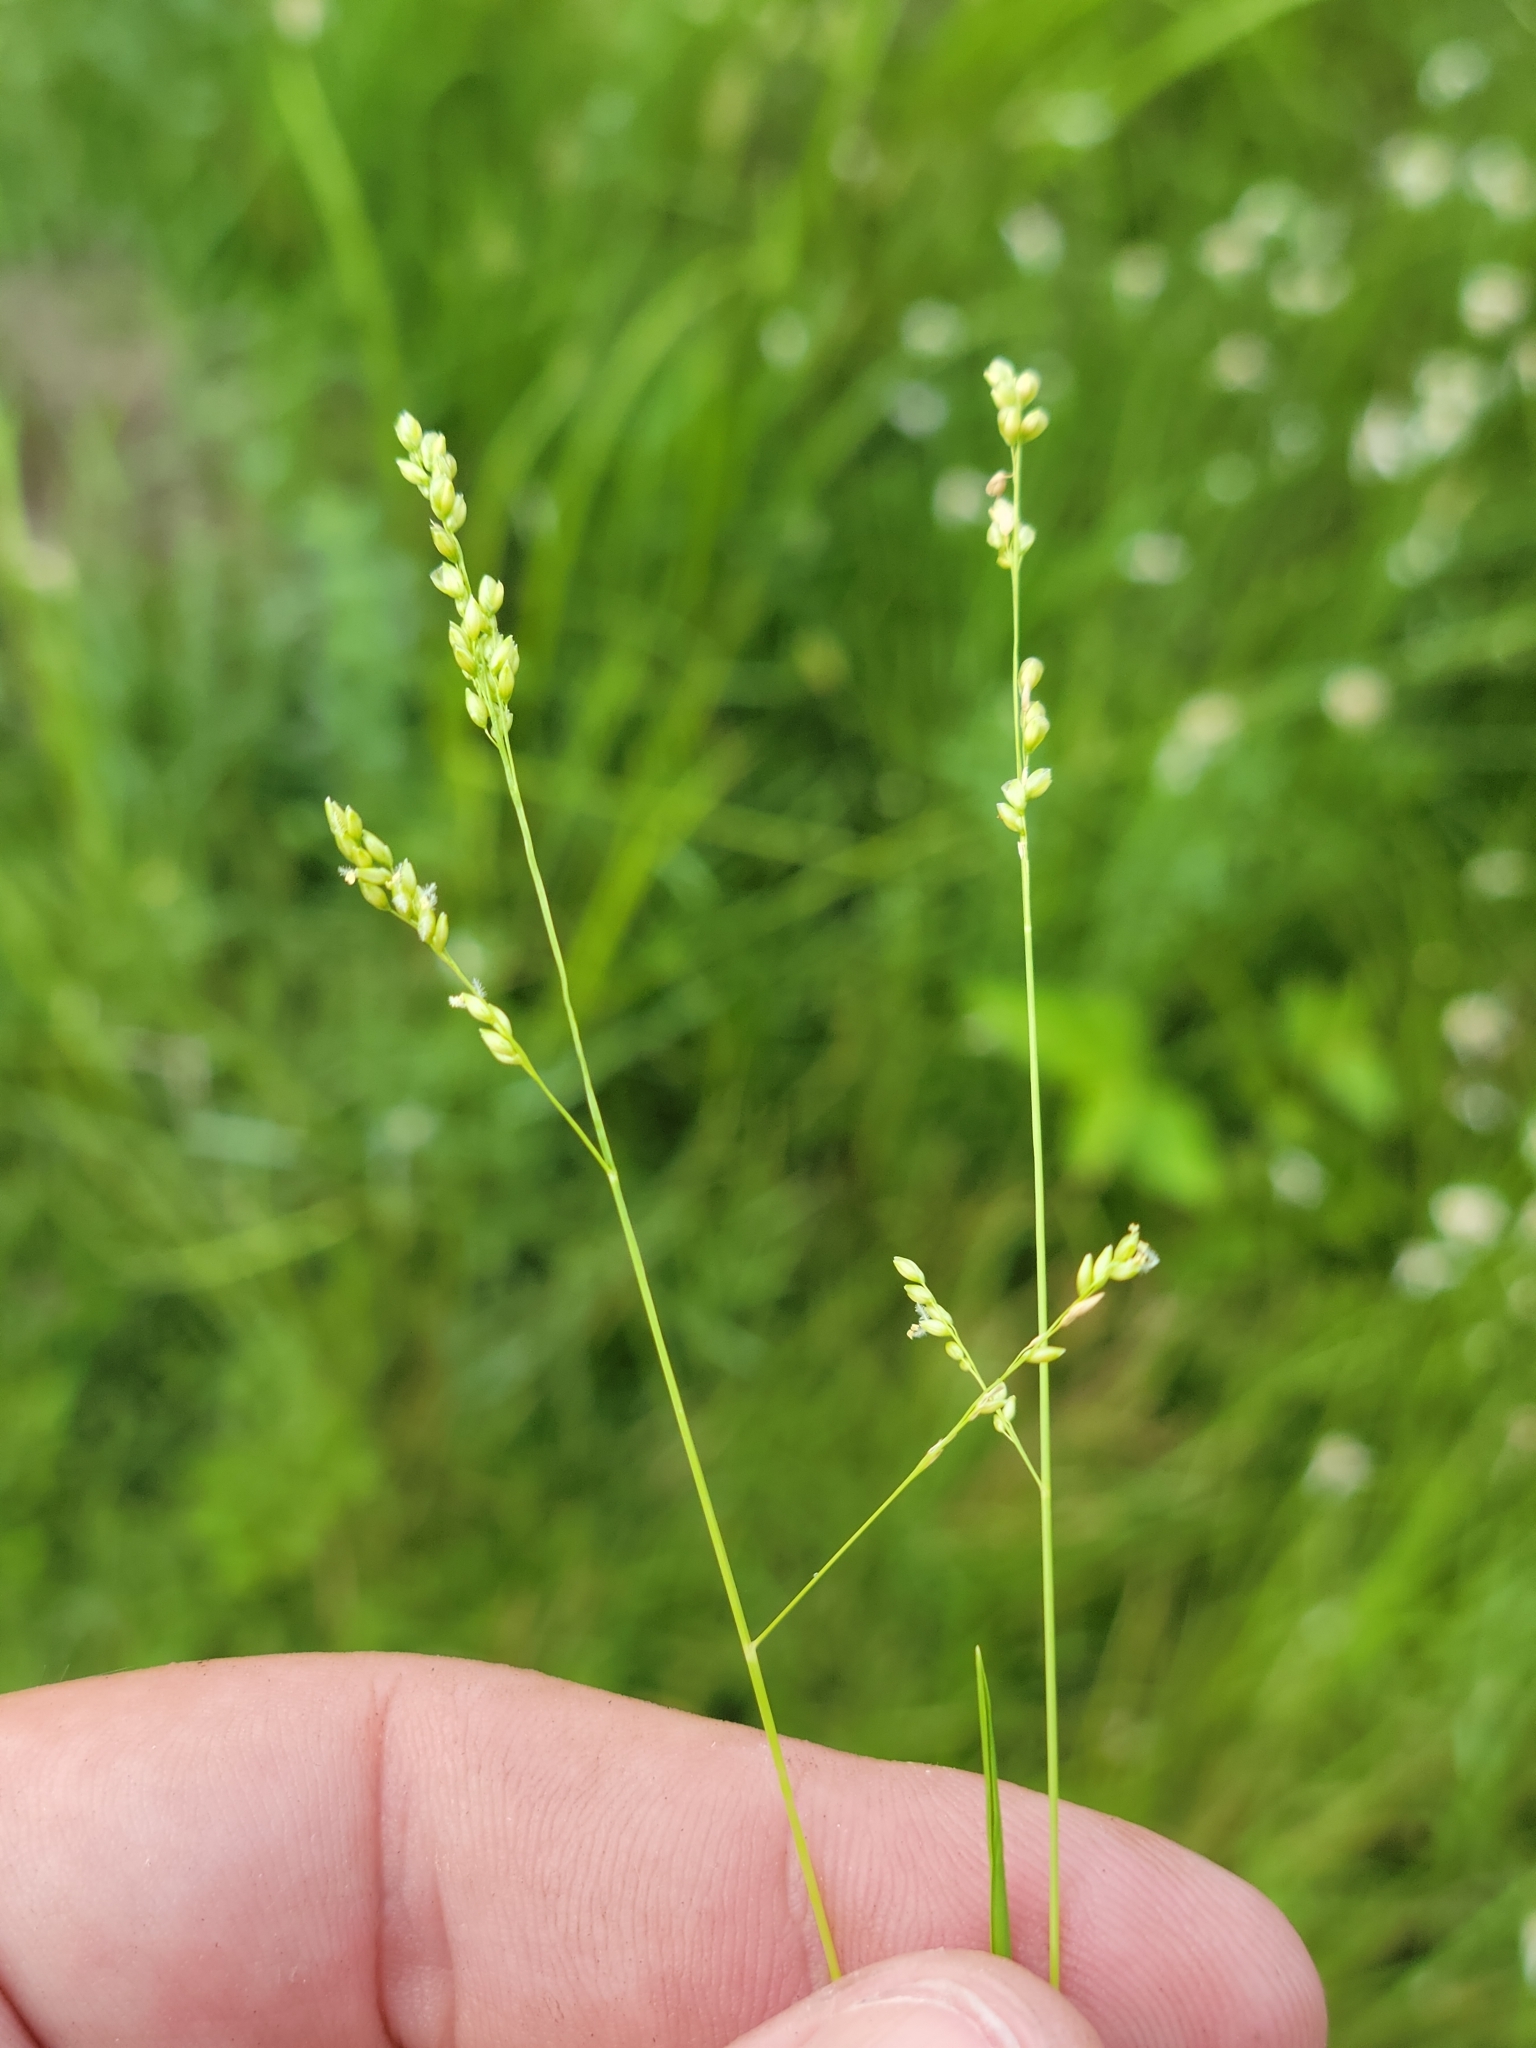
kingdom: Plantae
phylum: Tracheophyta
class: Liliopsida
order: Poales
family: Poaceae
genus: Steinchisma
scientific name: Steinchisma hians
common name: Gaping panic grass
